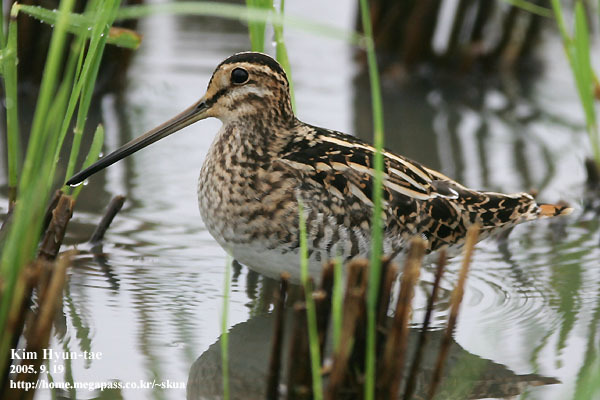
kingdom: Animalia
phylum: Chordata
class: Aves
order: Charadriiformes
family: Scolopacidae
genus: Gallinago
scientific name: Gallinago gallinago
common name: Common snipe
